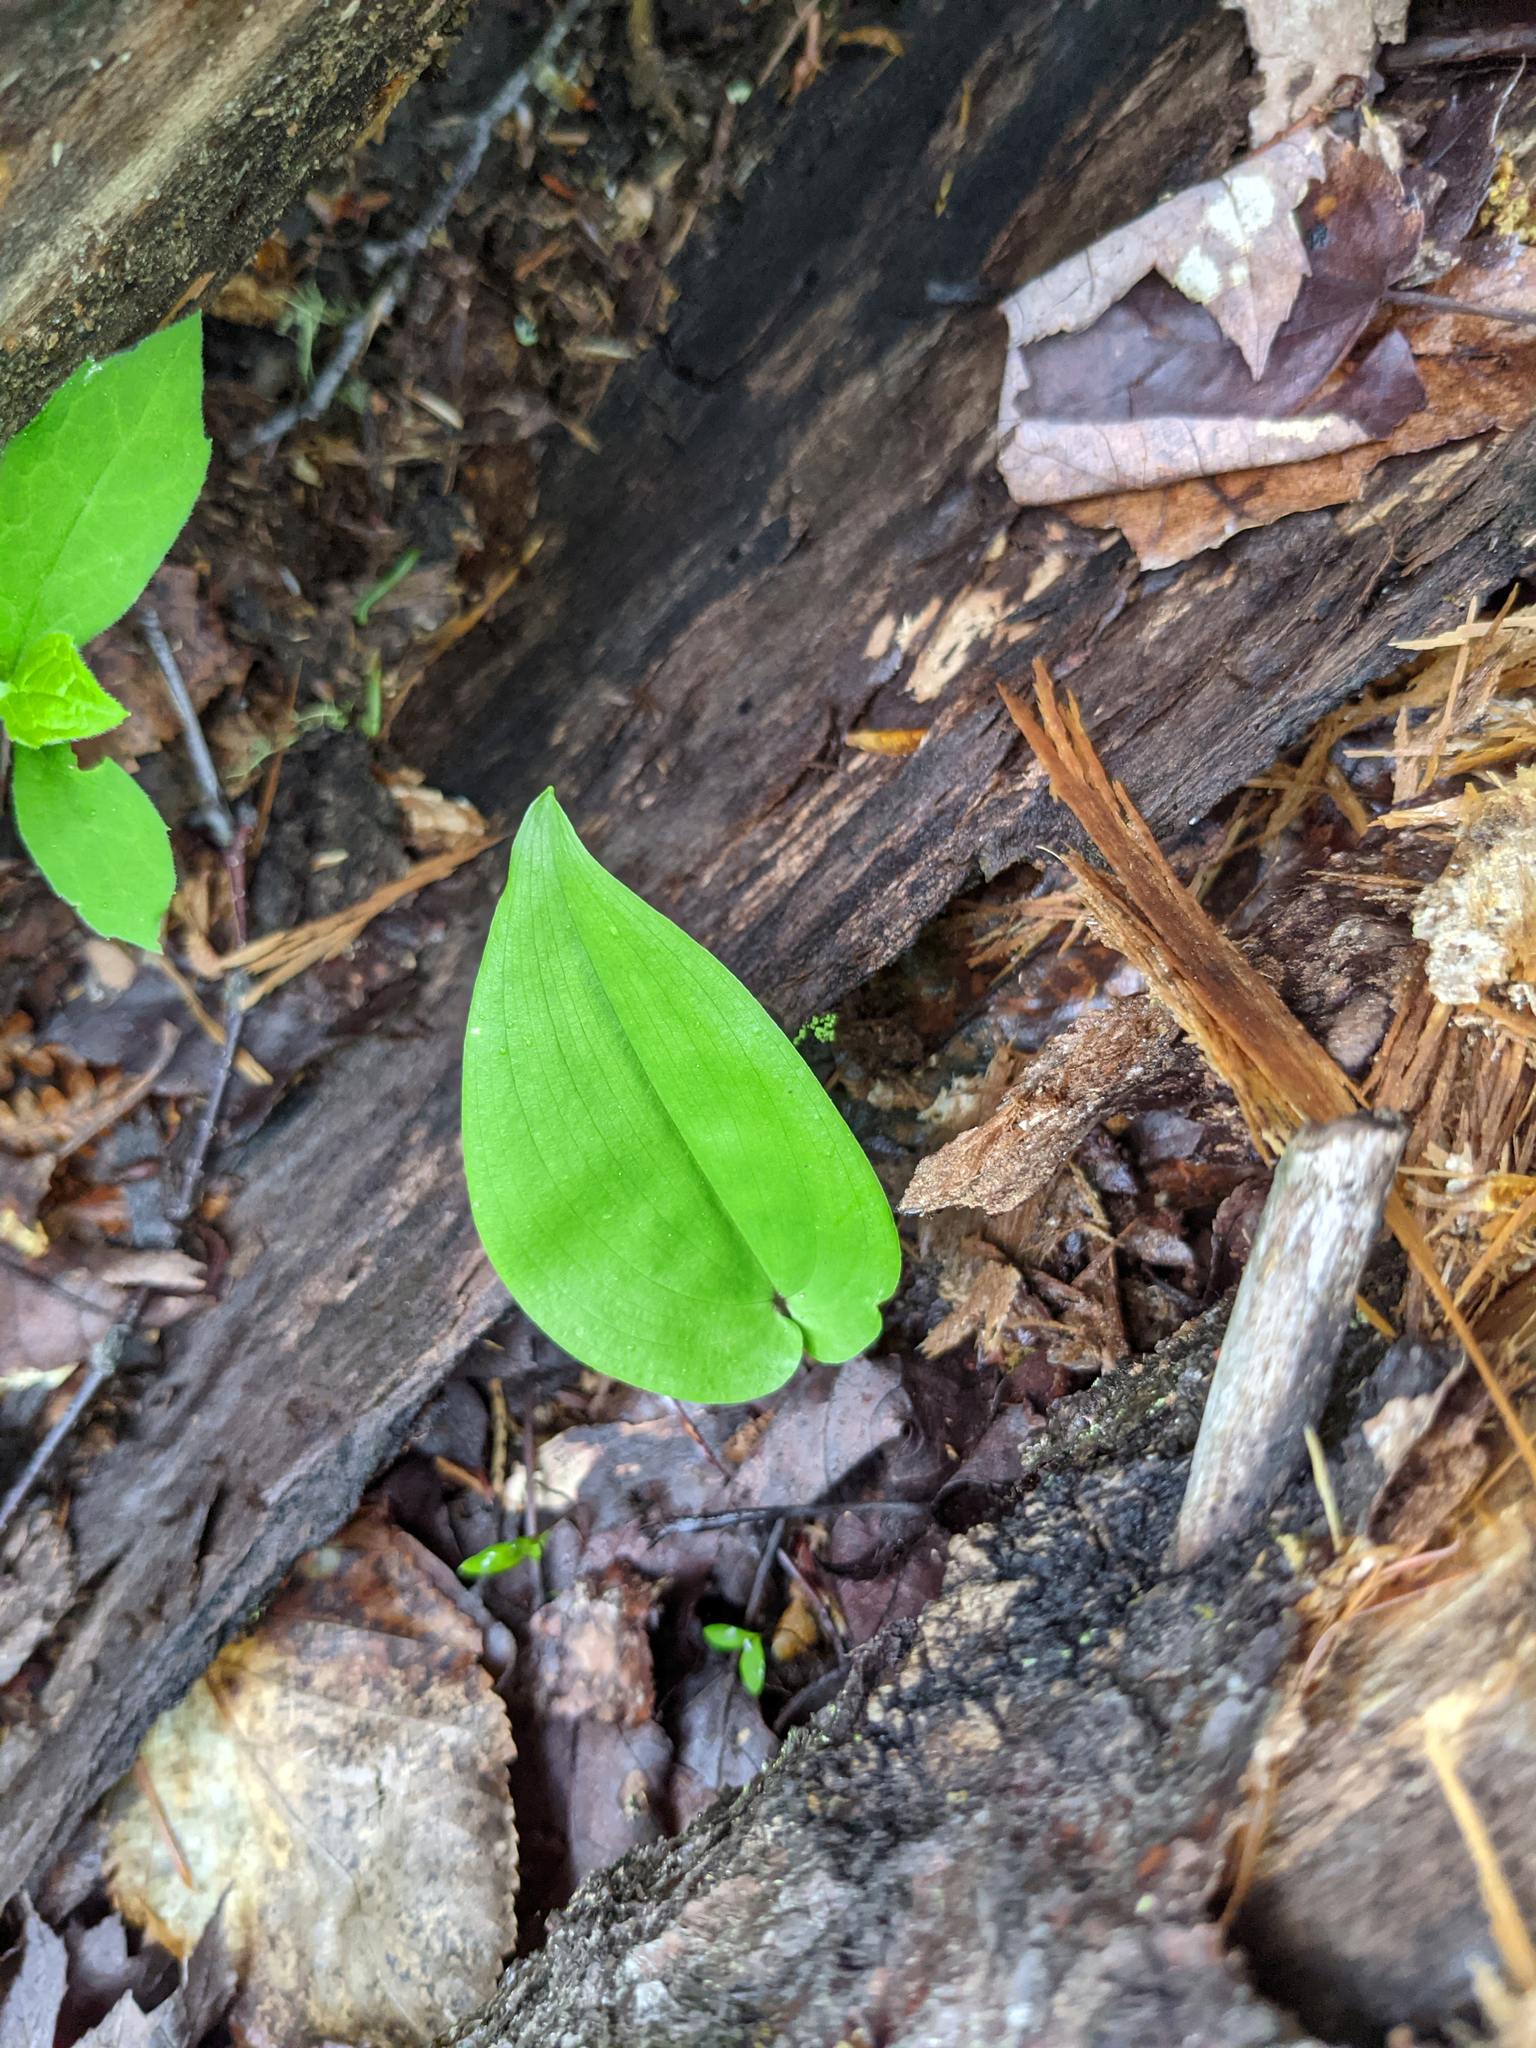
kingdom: Plantae
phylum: Tracheophyta
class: Liliopsida
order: Asparagales
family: Asparagaceae
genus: Maianthemum
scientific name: Maianthemum canadense
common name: False lily-of-the-valley
